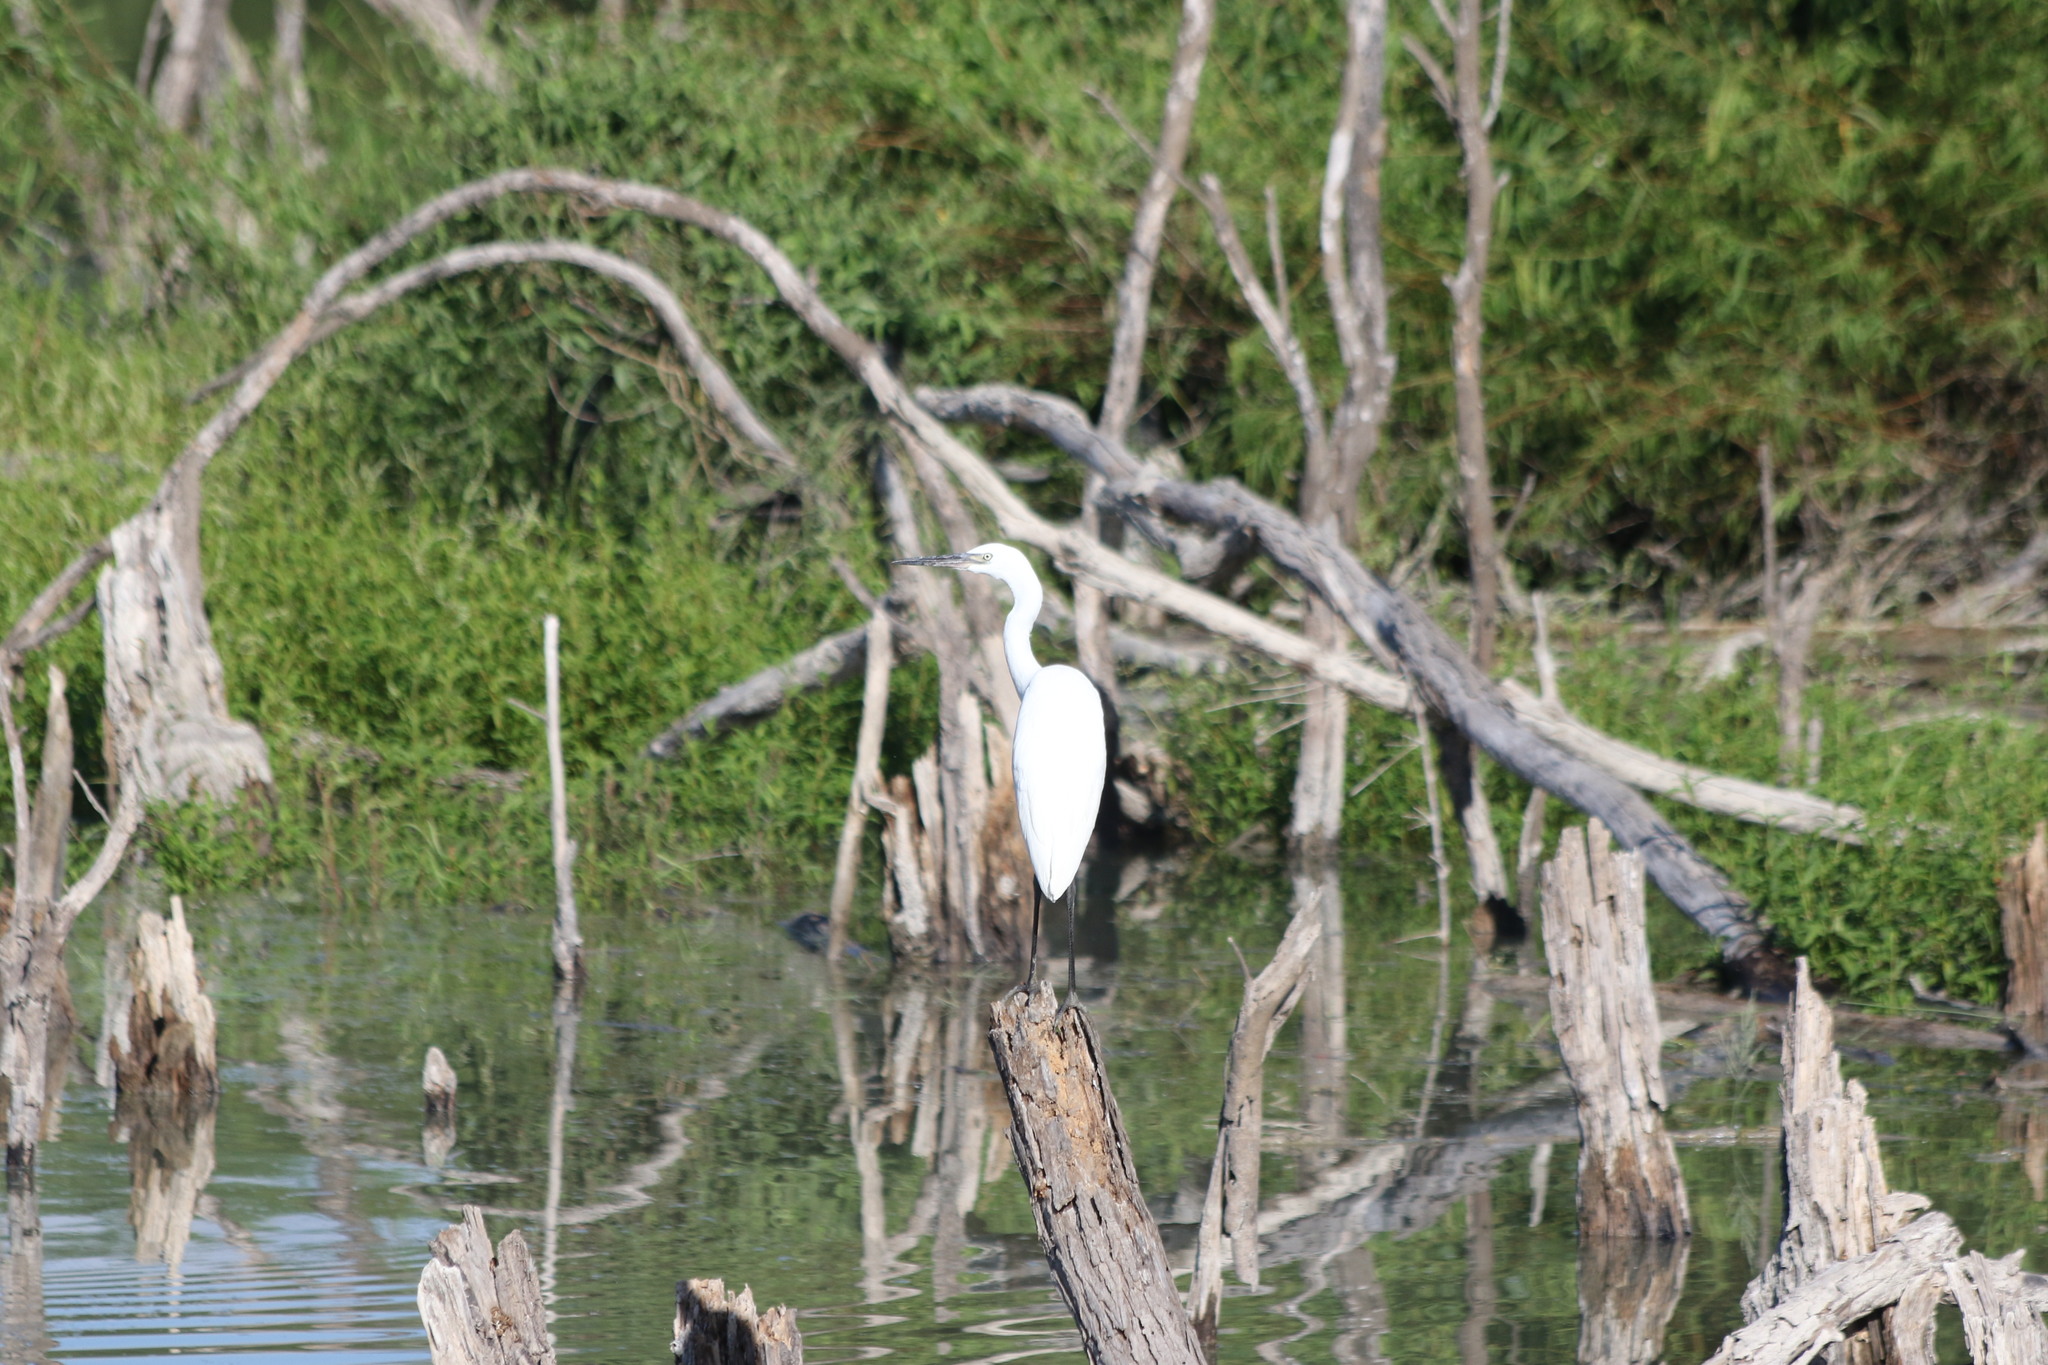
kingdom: Animalia
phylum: Chordata
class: Aves
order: Pelecaniformes
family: Ardeidae
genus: Egretta
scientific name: Egretta rufescens
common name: Reddish egret
